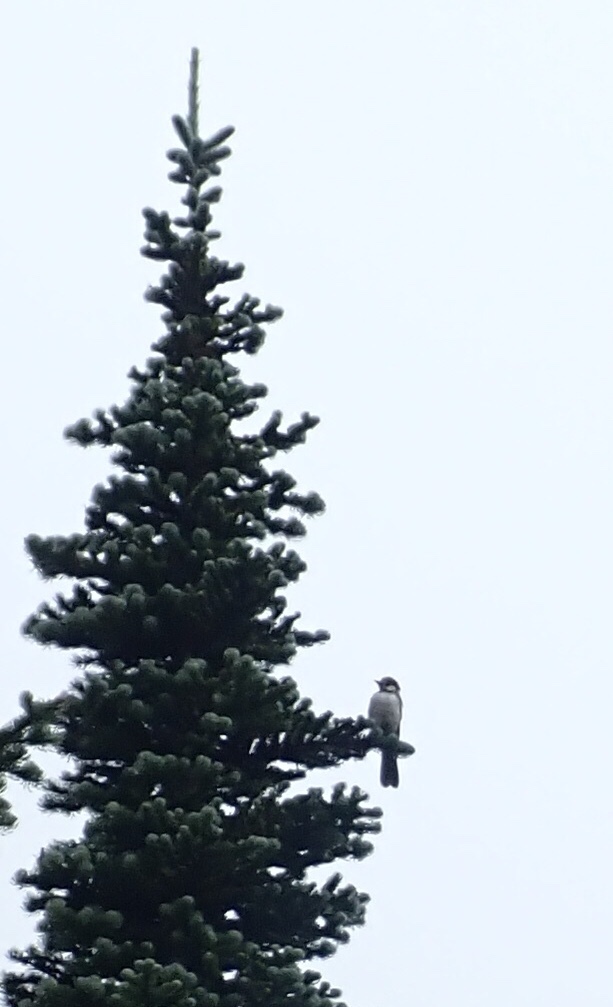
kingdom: Animalia
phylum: Chordata
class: Aves
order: Passeriformes
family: Corvidae
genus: Perisoreus
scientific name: Perisoreus canadensis
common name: Gray jay
